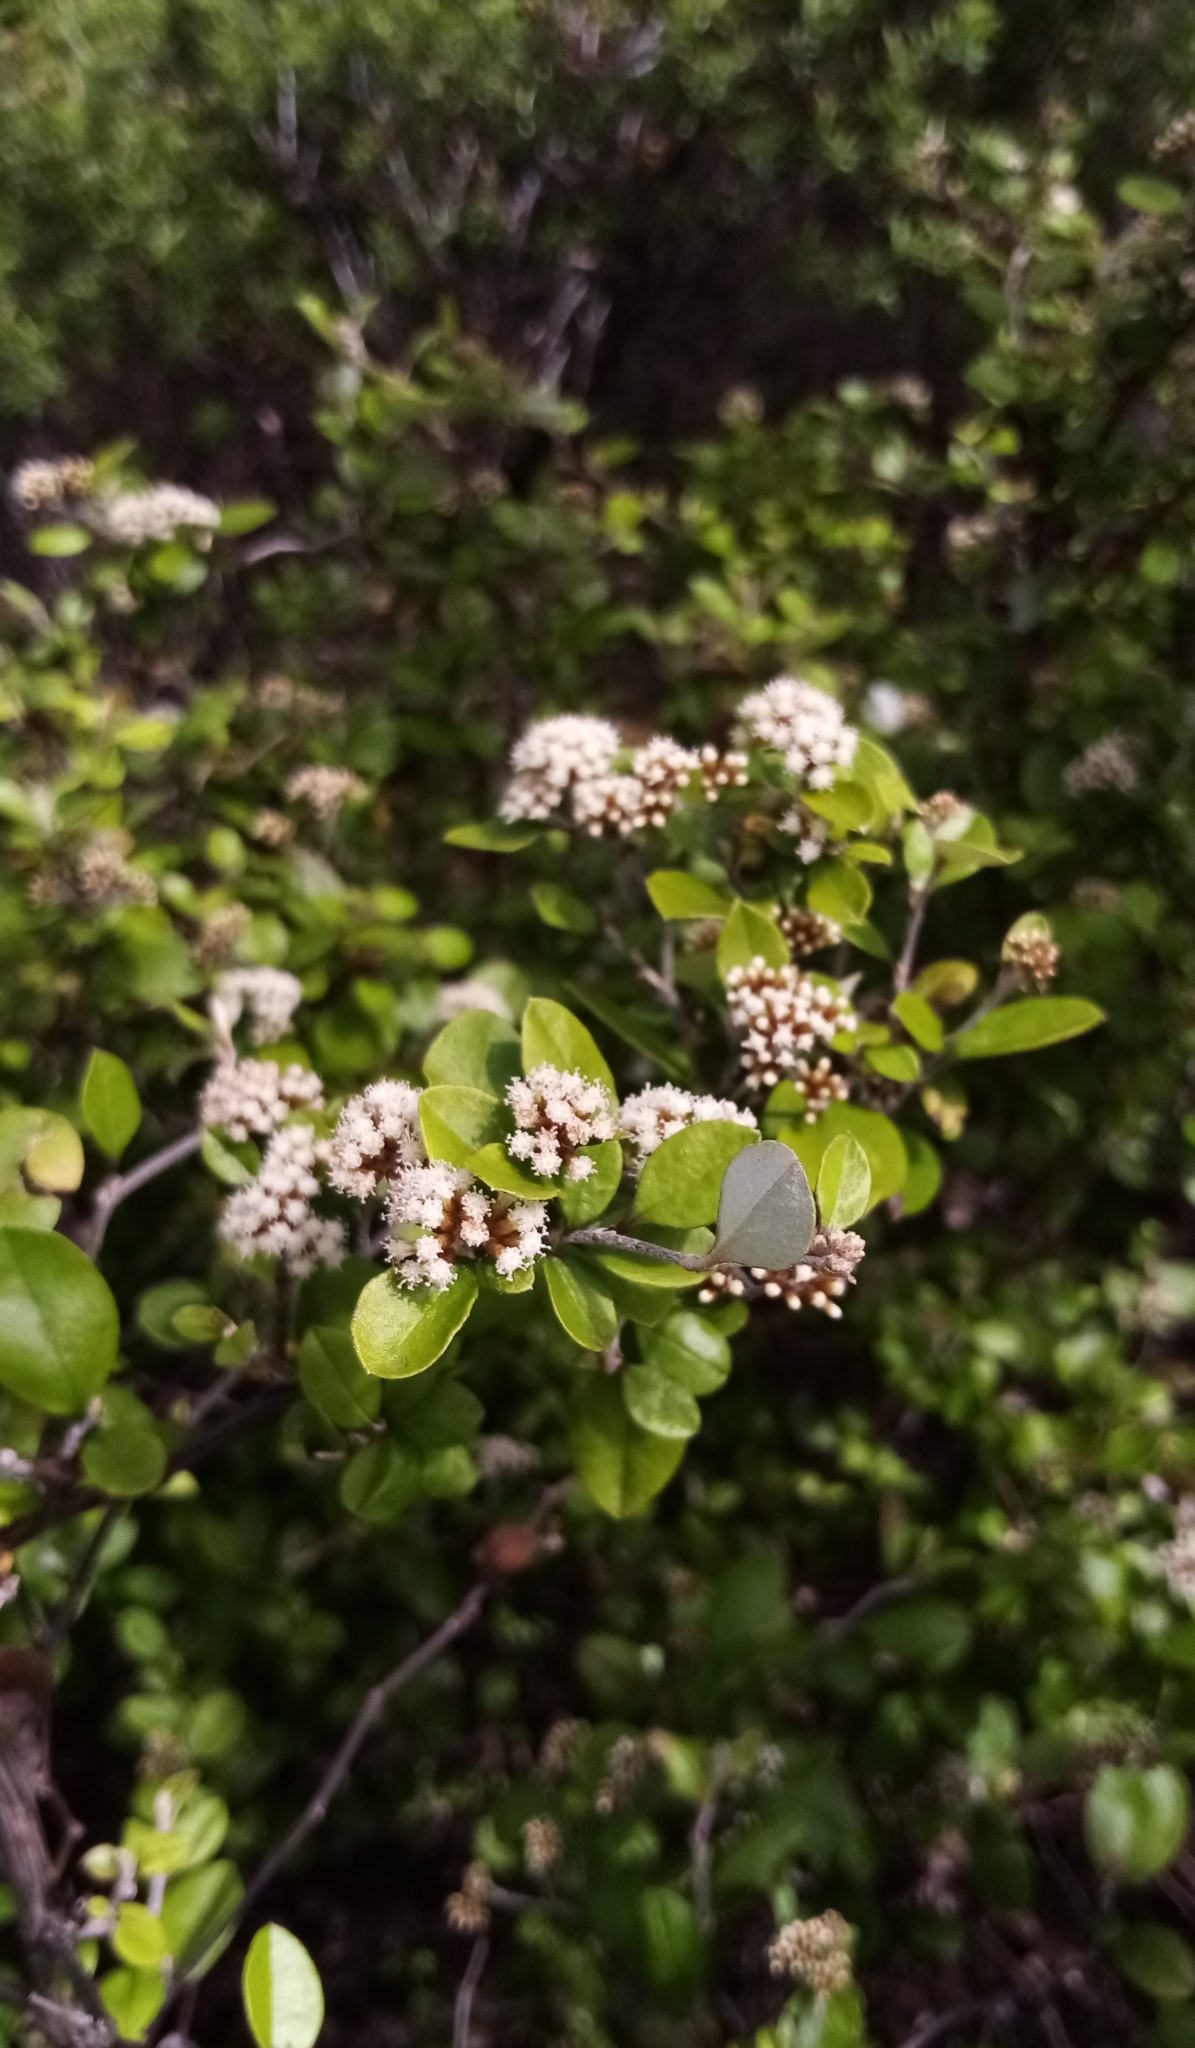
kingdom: Plantae
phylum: Tracheophyta
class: Magnoliopsida
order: Asterales
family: Asteraceae
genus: Ozothamnus
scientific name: Ozothamnus glomeratus
